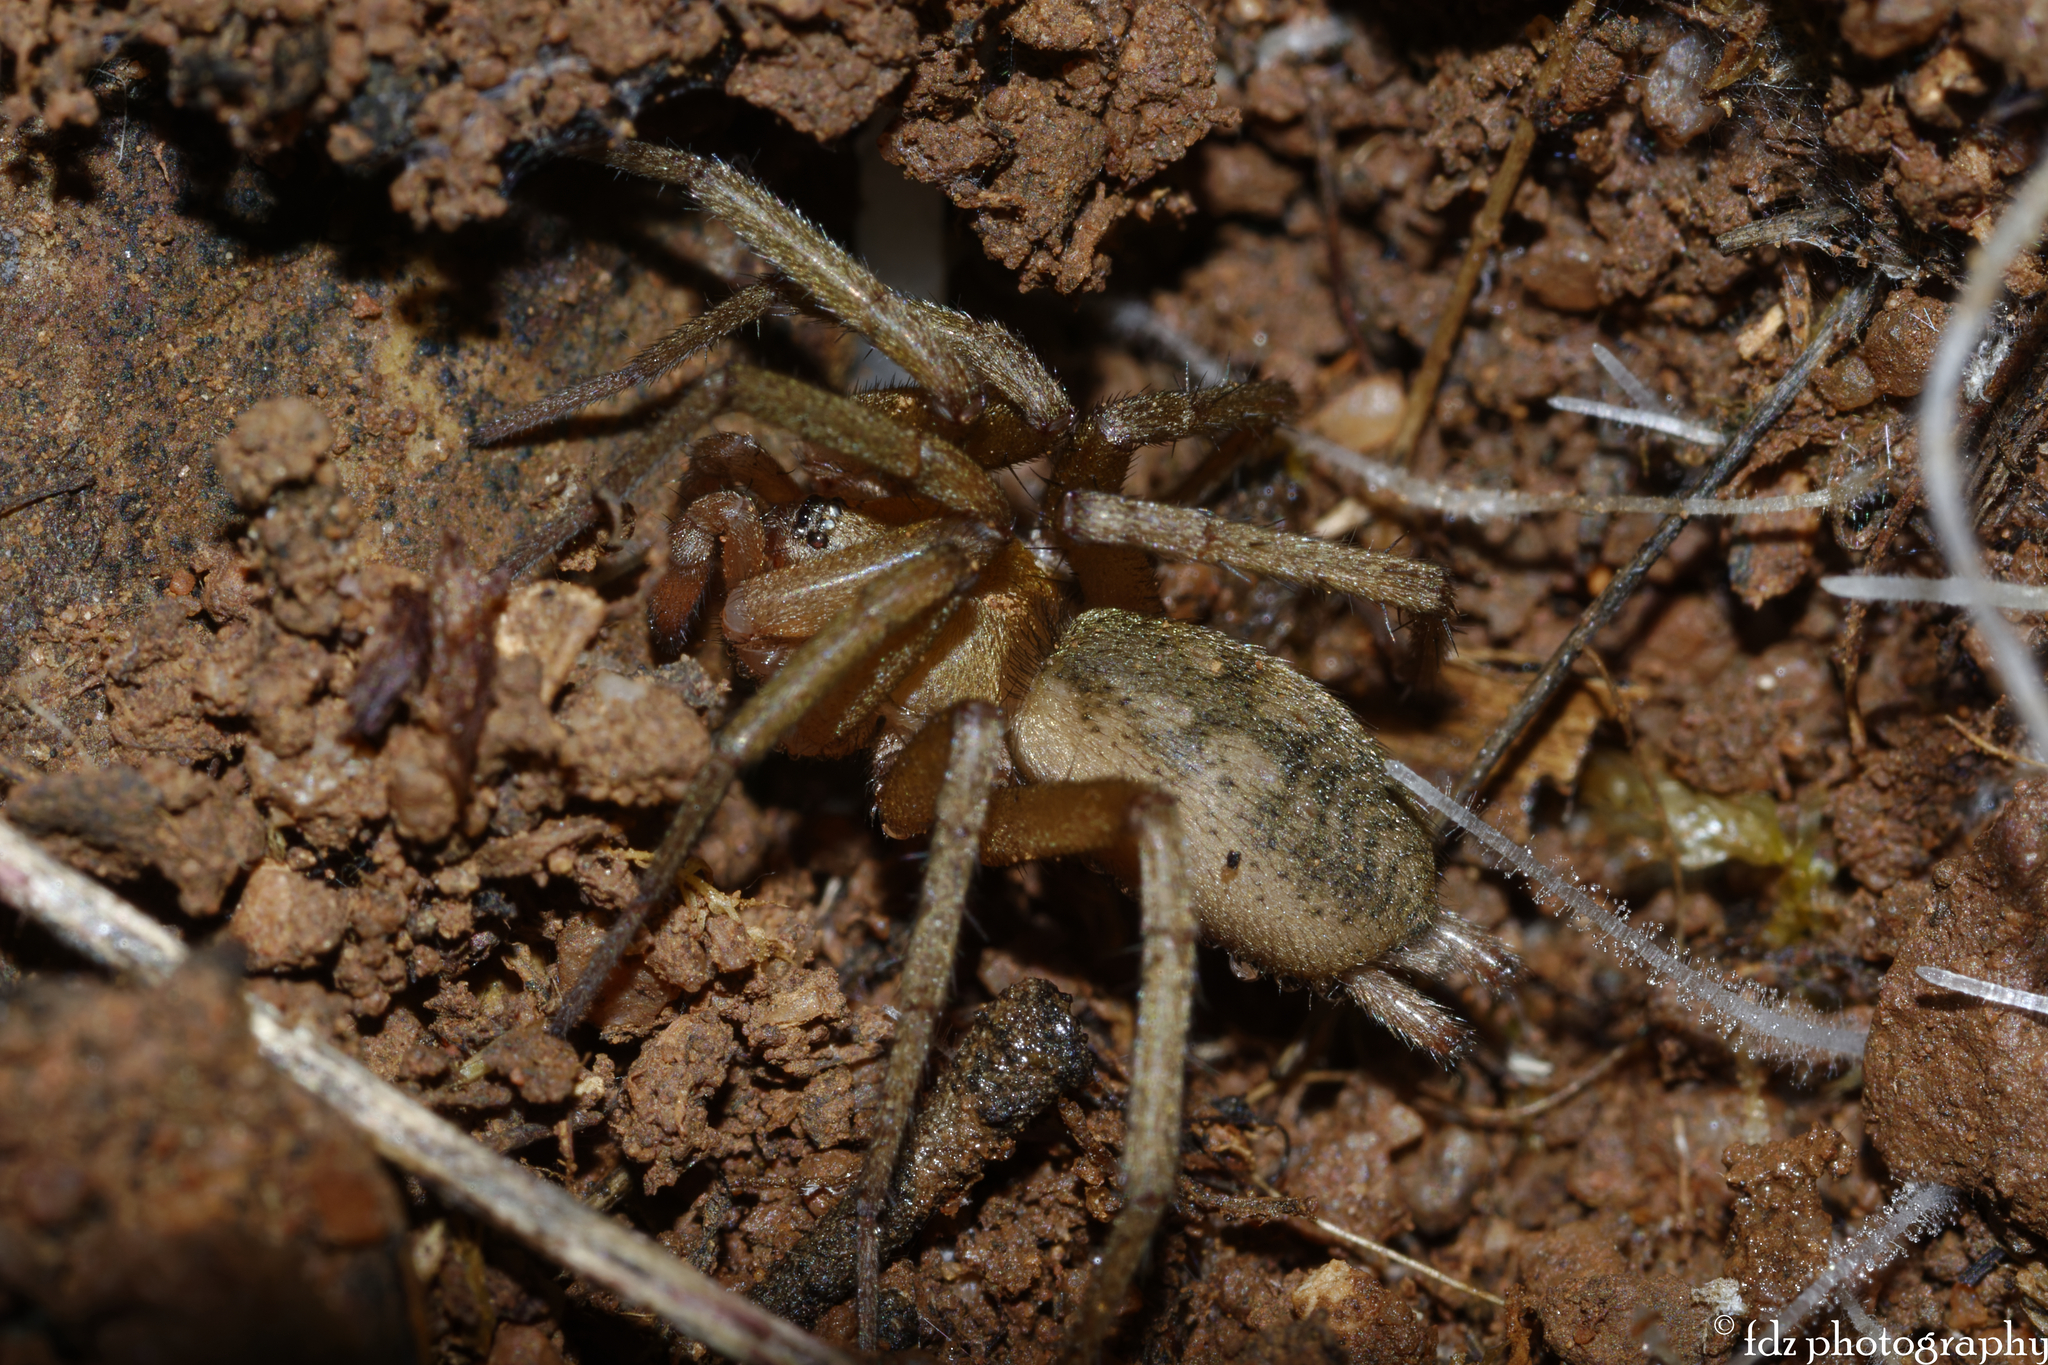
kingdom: Animalia
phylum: Arthropoda
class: Arachnida
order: Araneae
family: Gnaphosidae
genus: Pterotricha
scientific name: Pterotricha simoni
